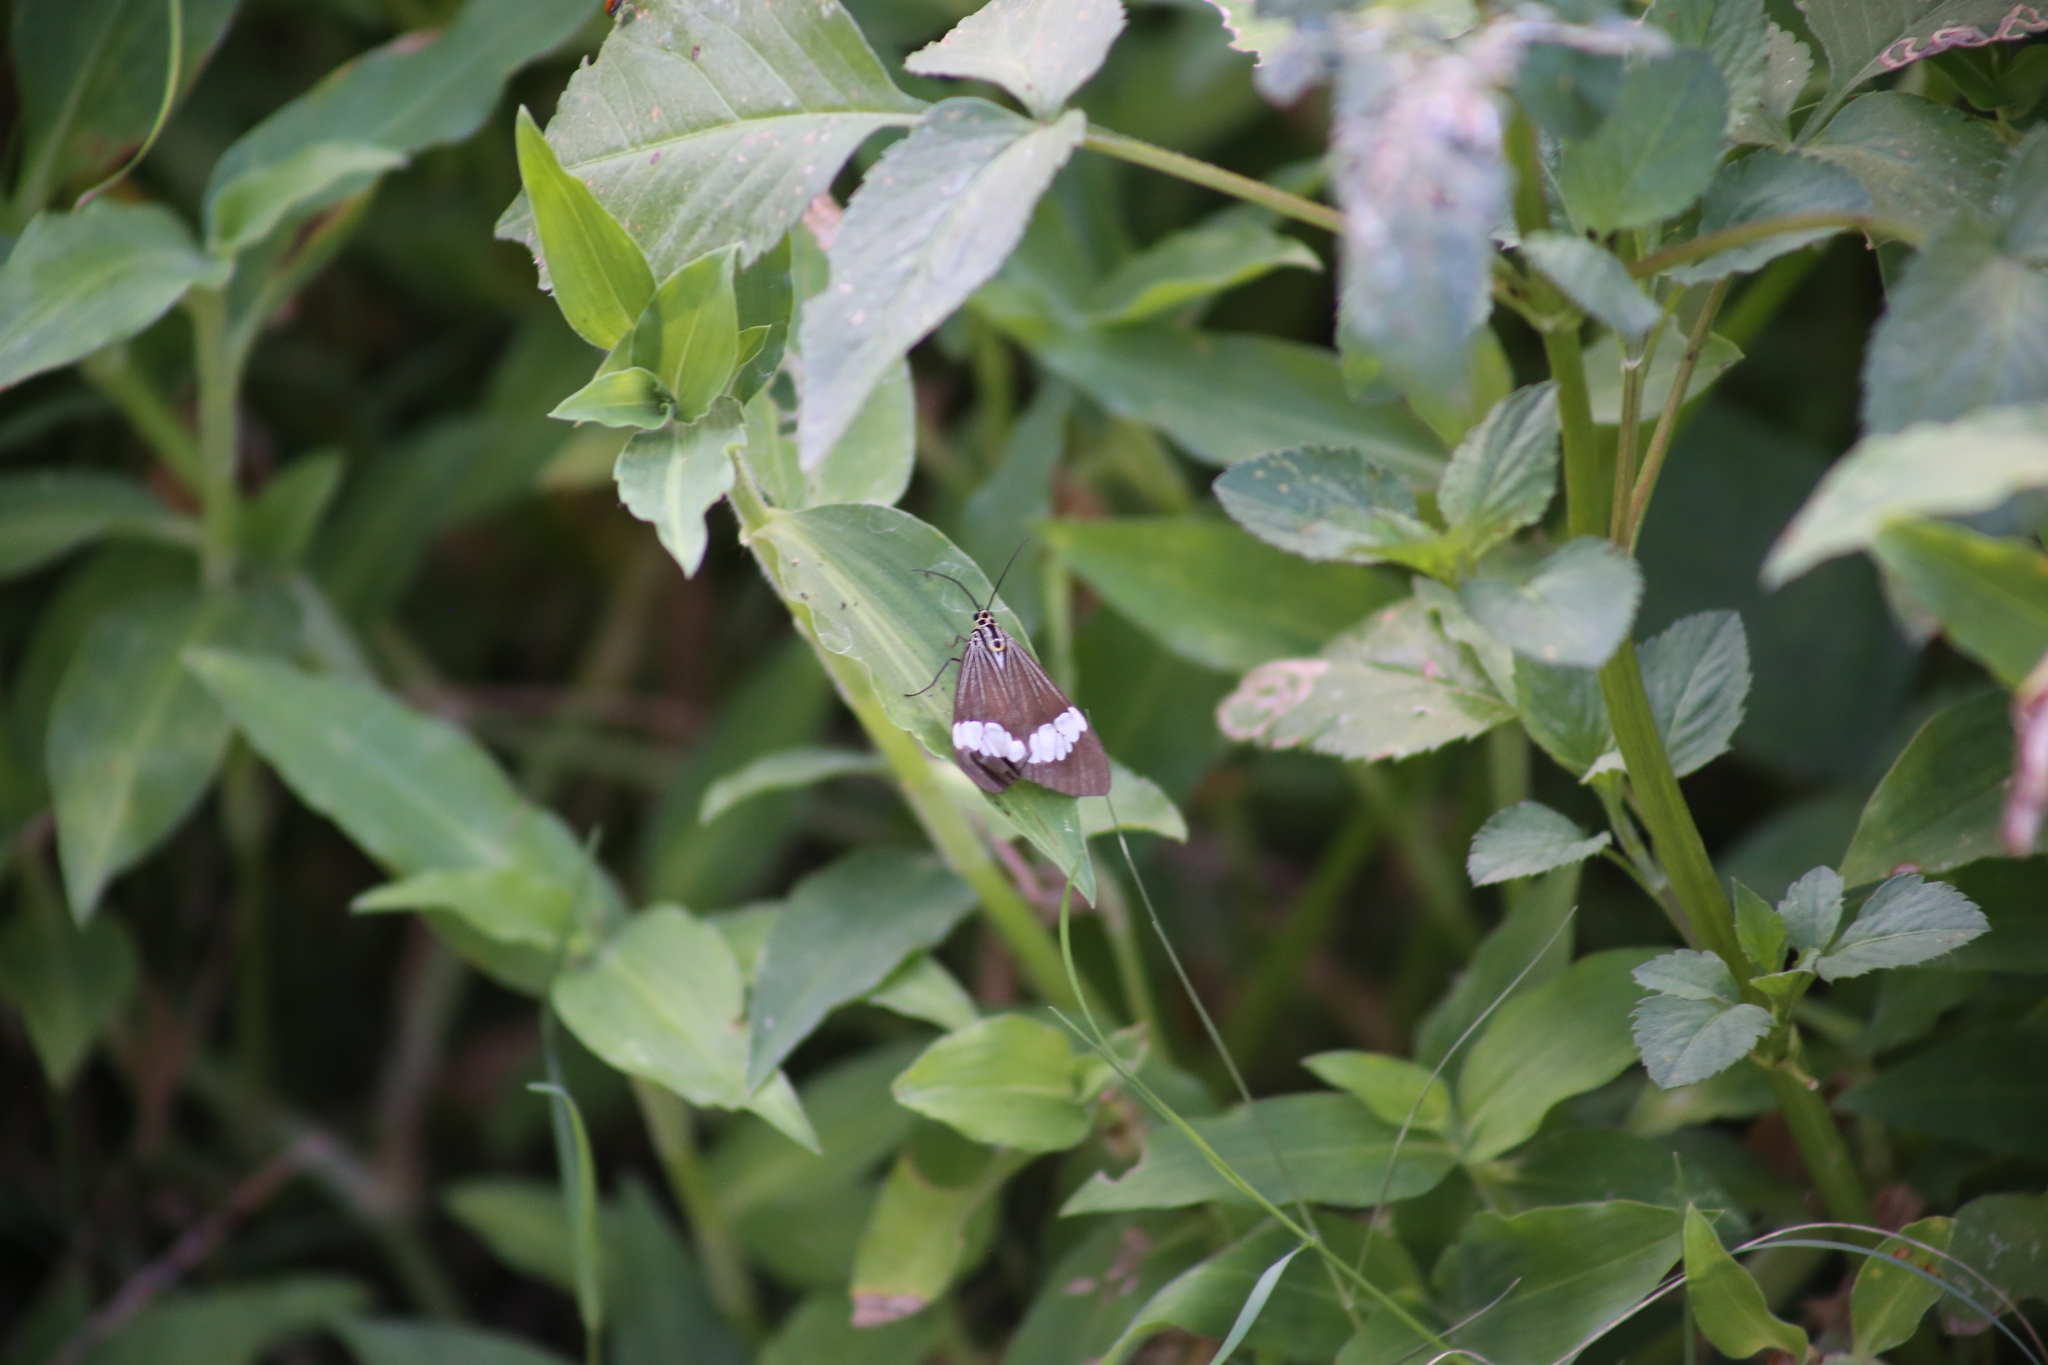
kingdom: Animalia
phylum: Arthropoda
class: Insecta
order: Lepidoptera
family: Erebidae
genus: Nyctemera
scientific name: Nyctemera baulus
